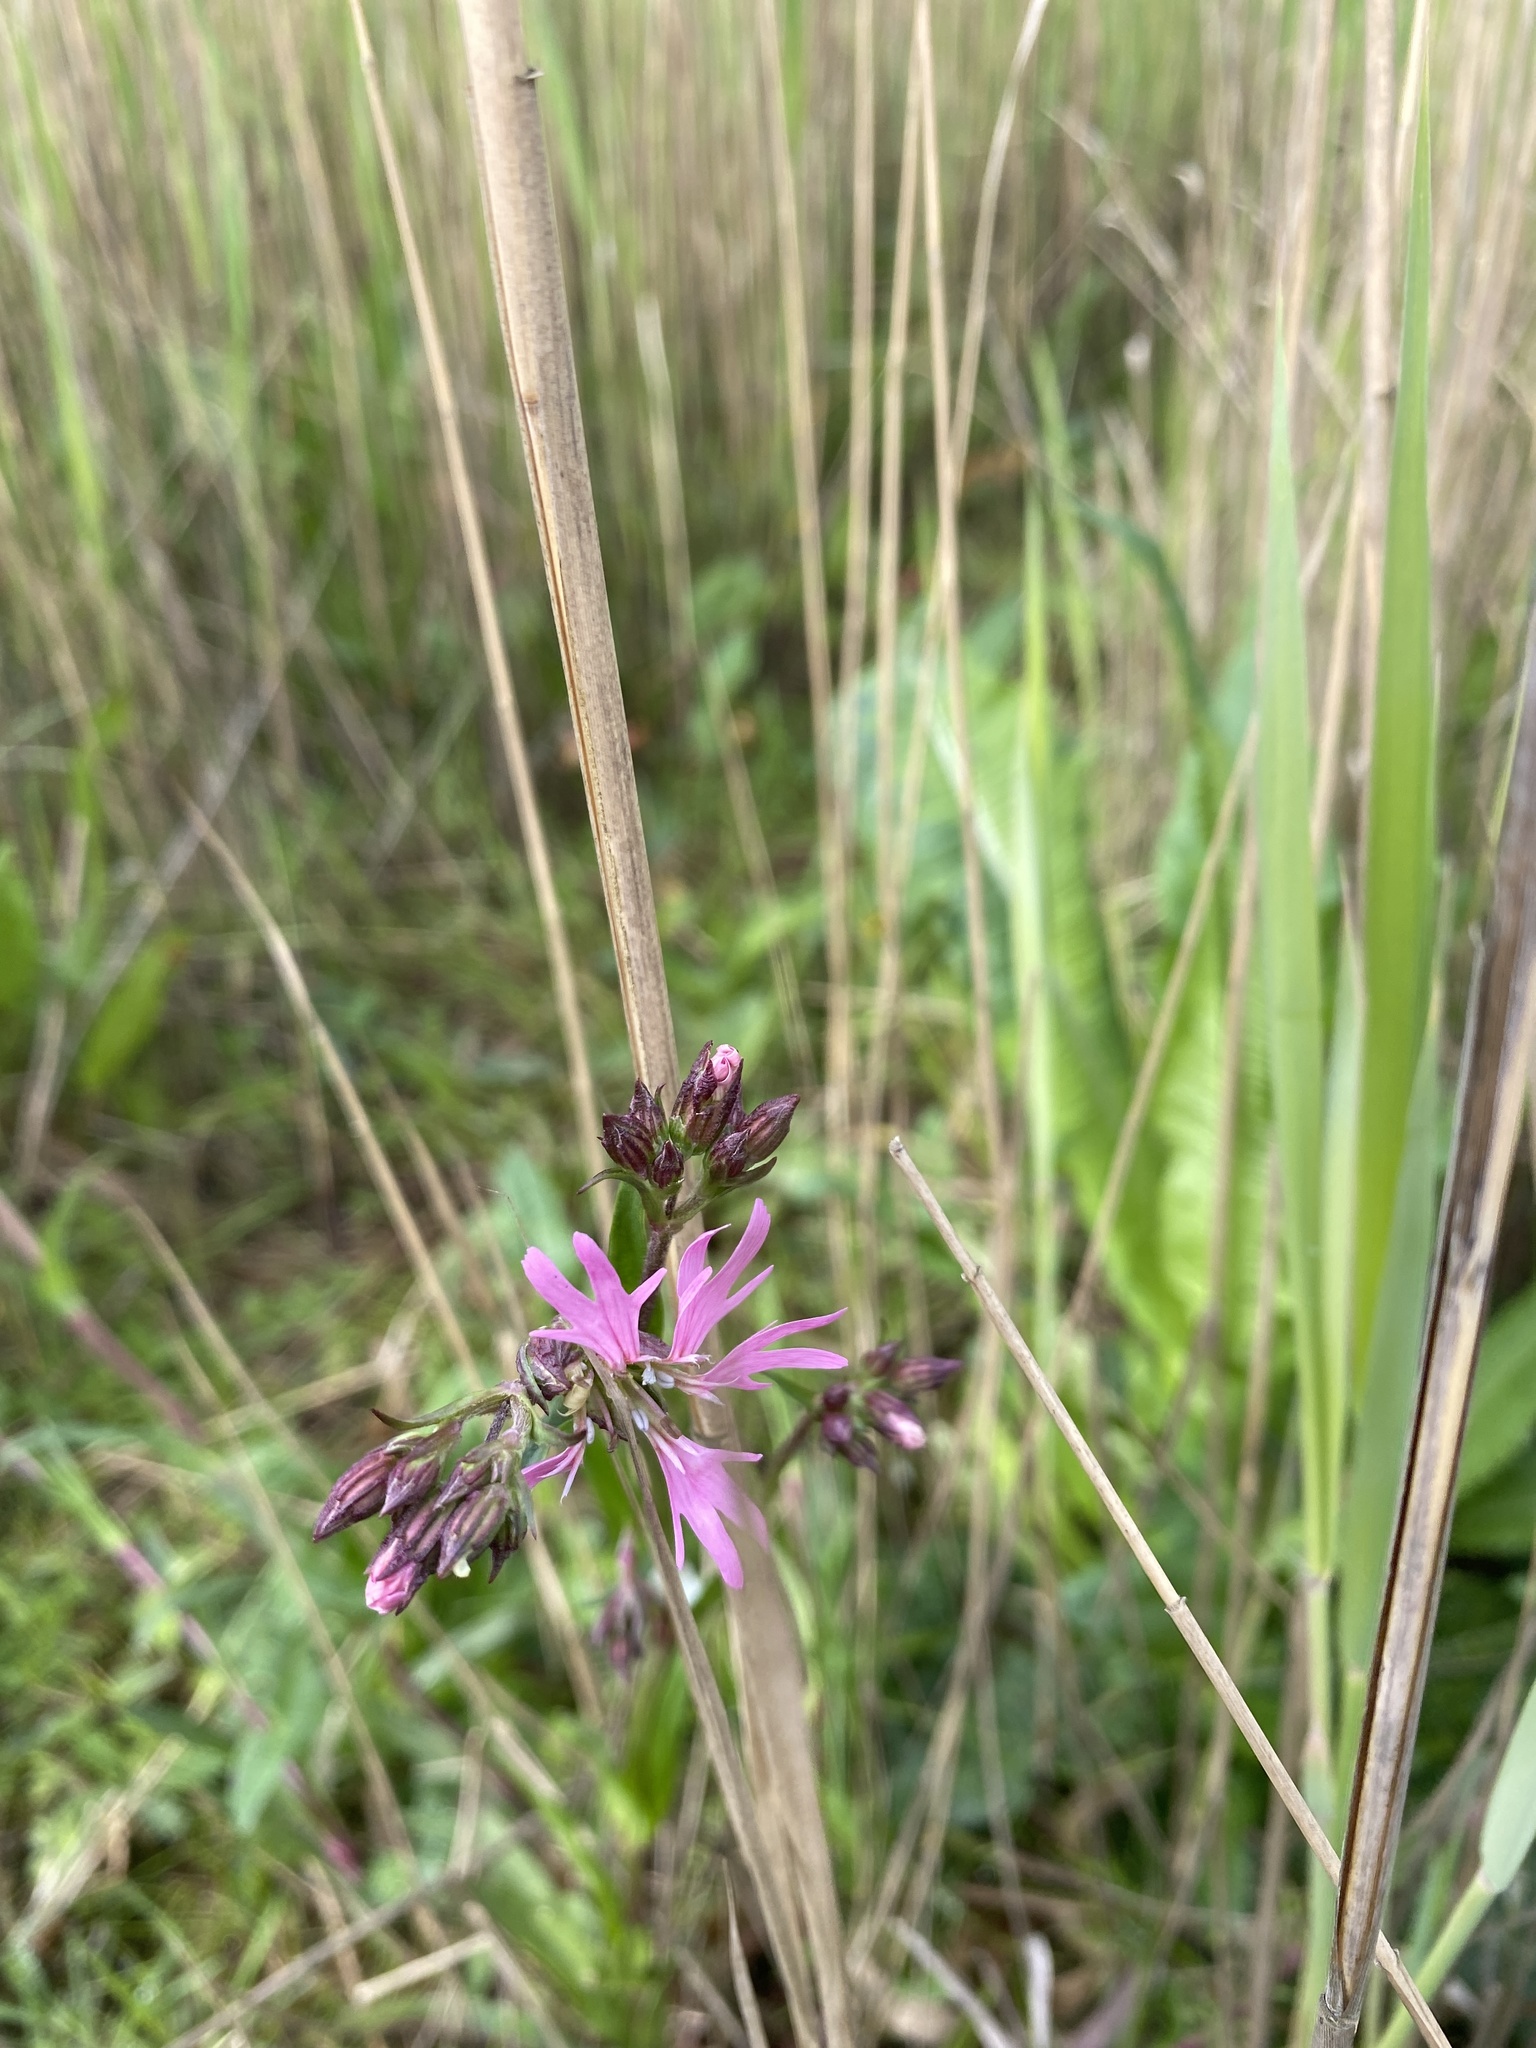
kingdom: Plantae
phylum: Tracheophyta
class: Magnoliopsida
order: Caryophyllales
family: Caryophyllaceae
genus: Silene
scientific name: Silene flos-cuculi
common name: Ragged-robin
